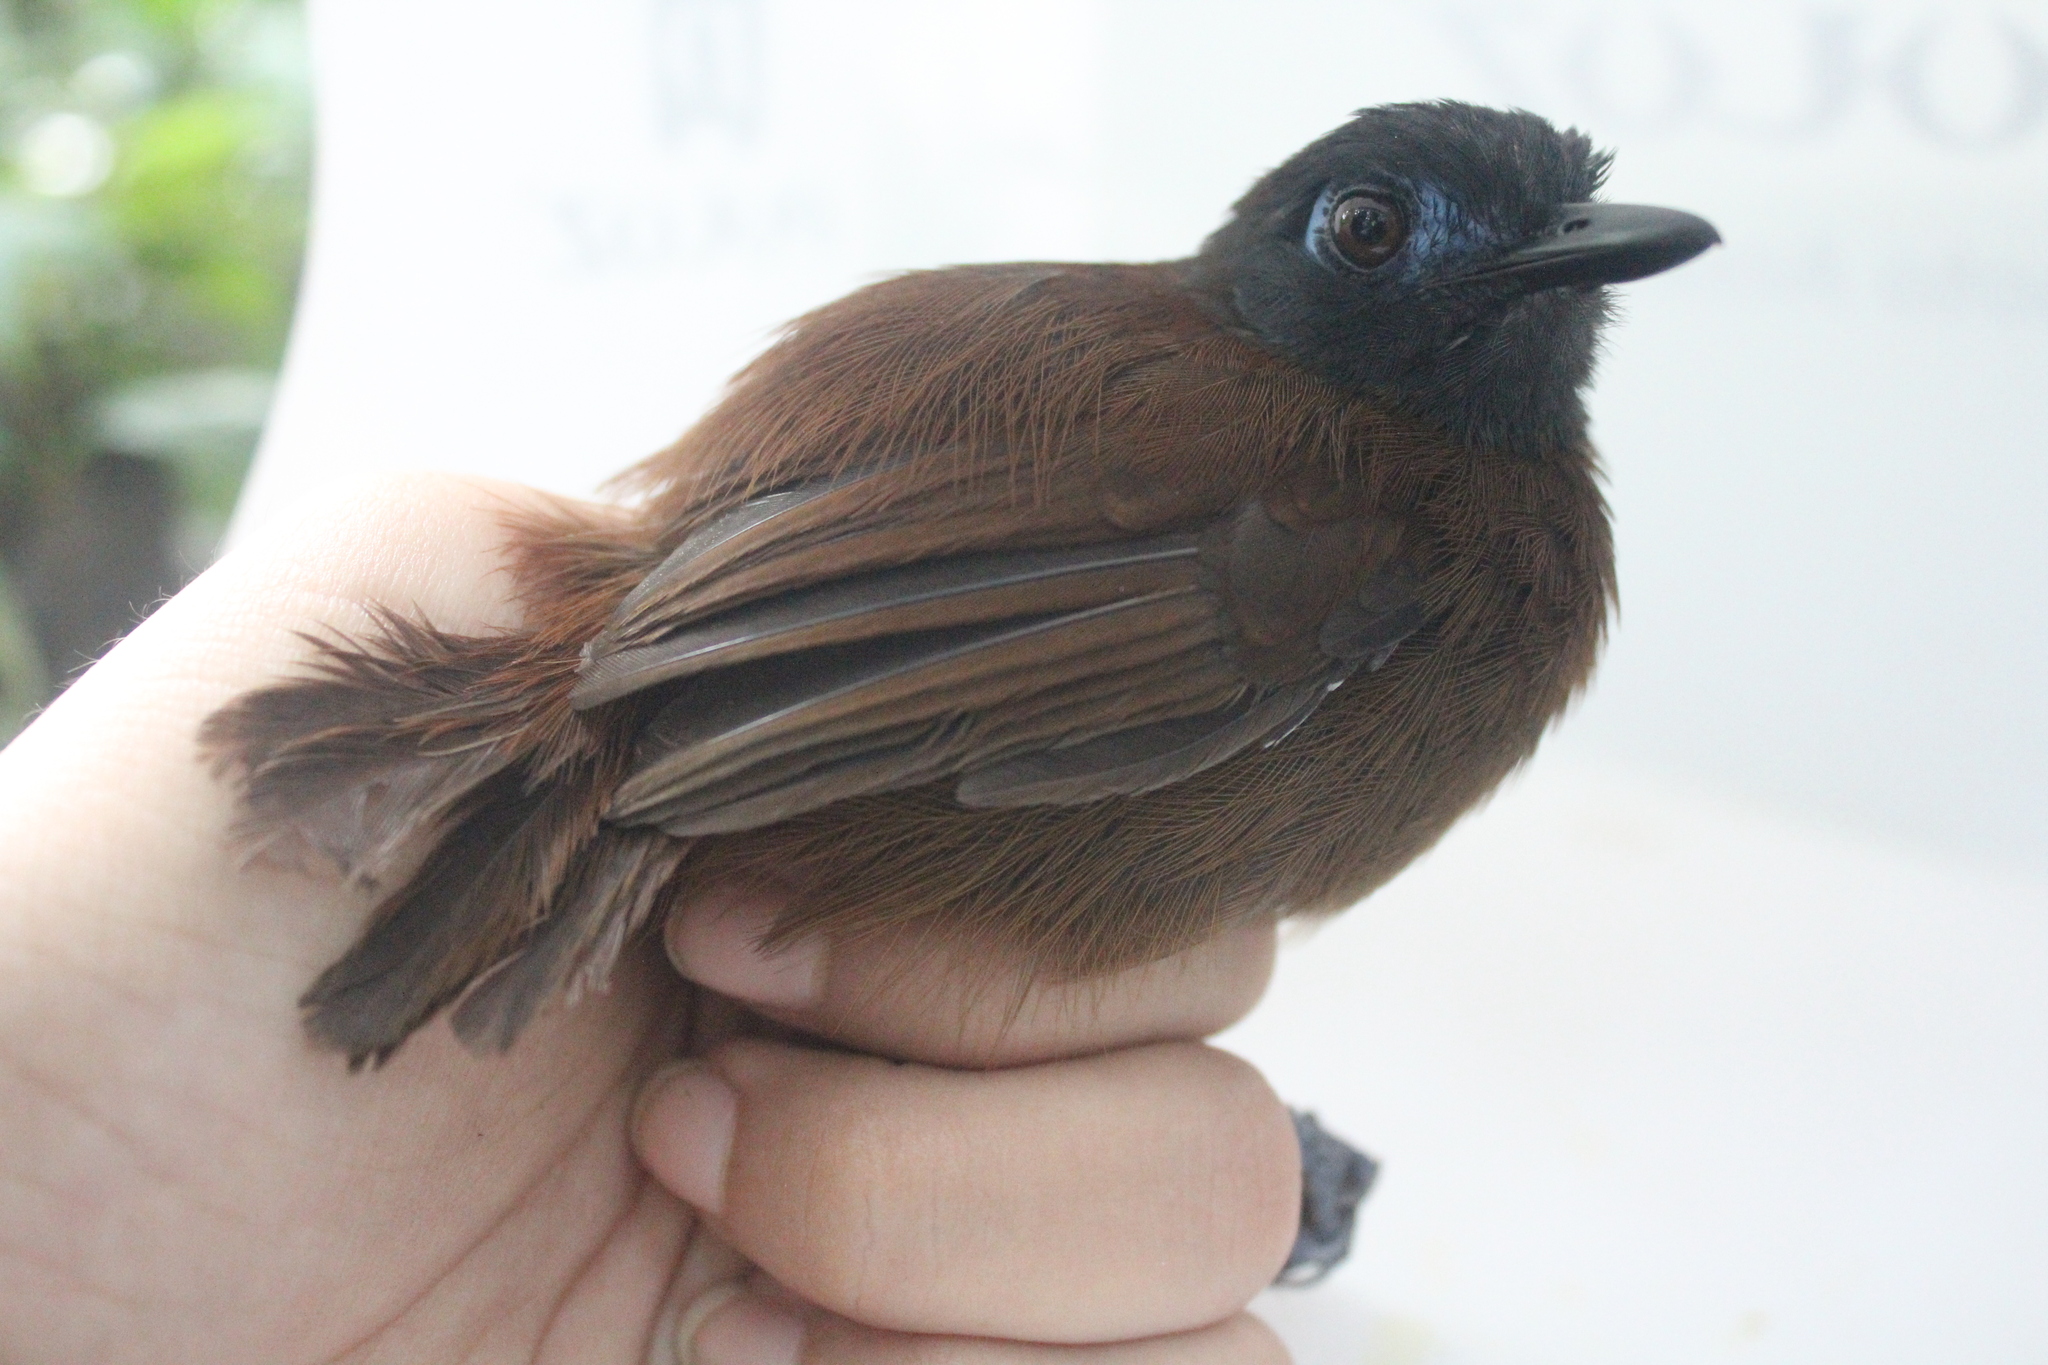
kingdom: Animalia
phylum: Chordata
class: Aves
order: Passeriformes
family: Thamnophilidae
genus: Myrmeciza
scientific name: Myrmeciza exsul
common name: Chestnut-backed antbird
